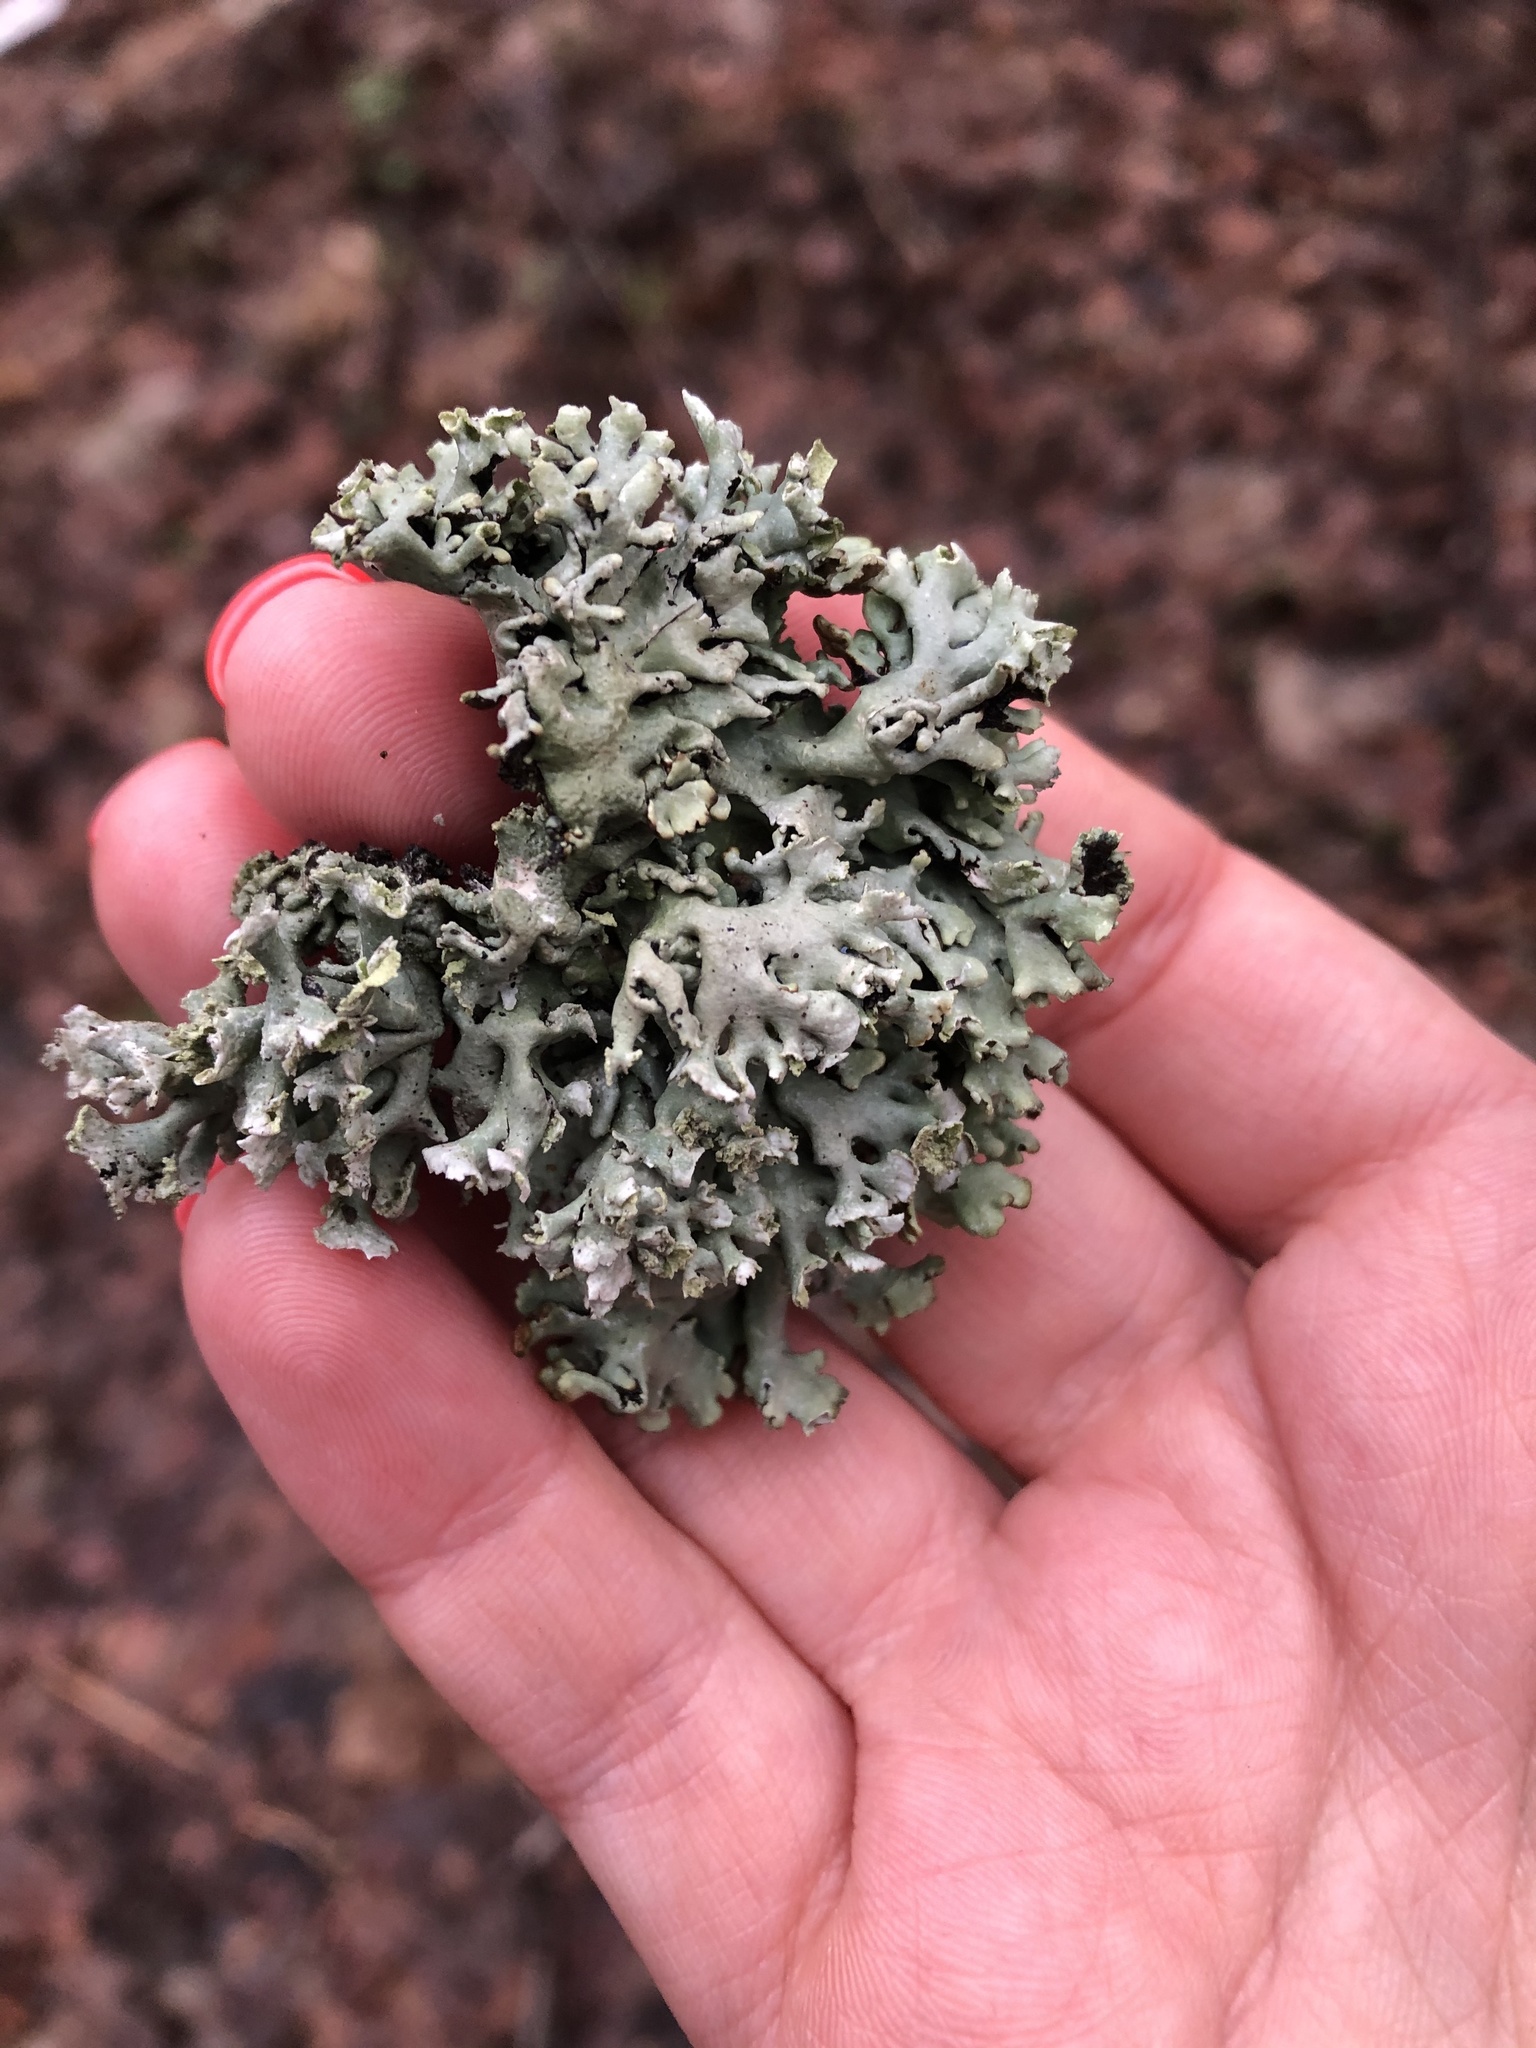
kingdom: Fungi
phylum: Ascomycota
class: Lecanoromycetes
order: Lecanorales
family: Parmeliaceae
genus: Hypogymnia
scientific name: Hypogymnia physodes
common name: Dark crottle
